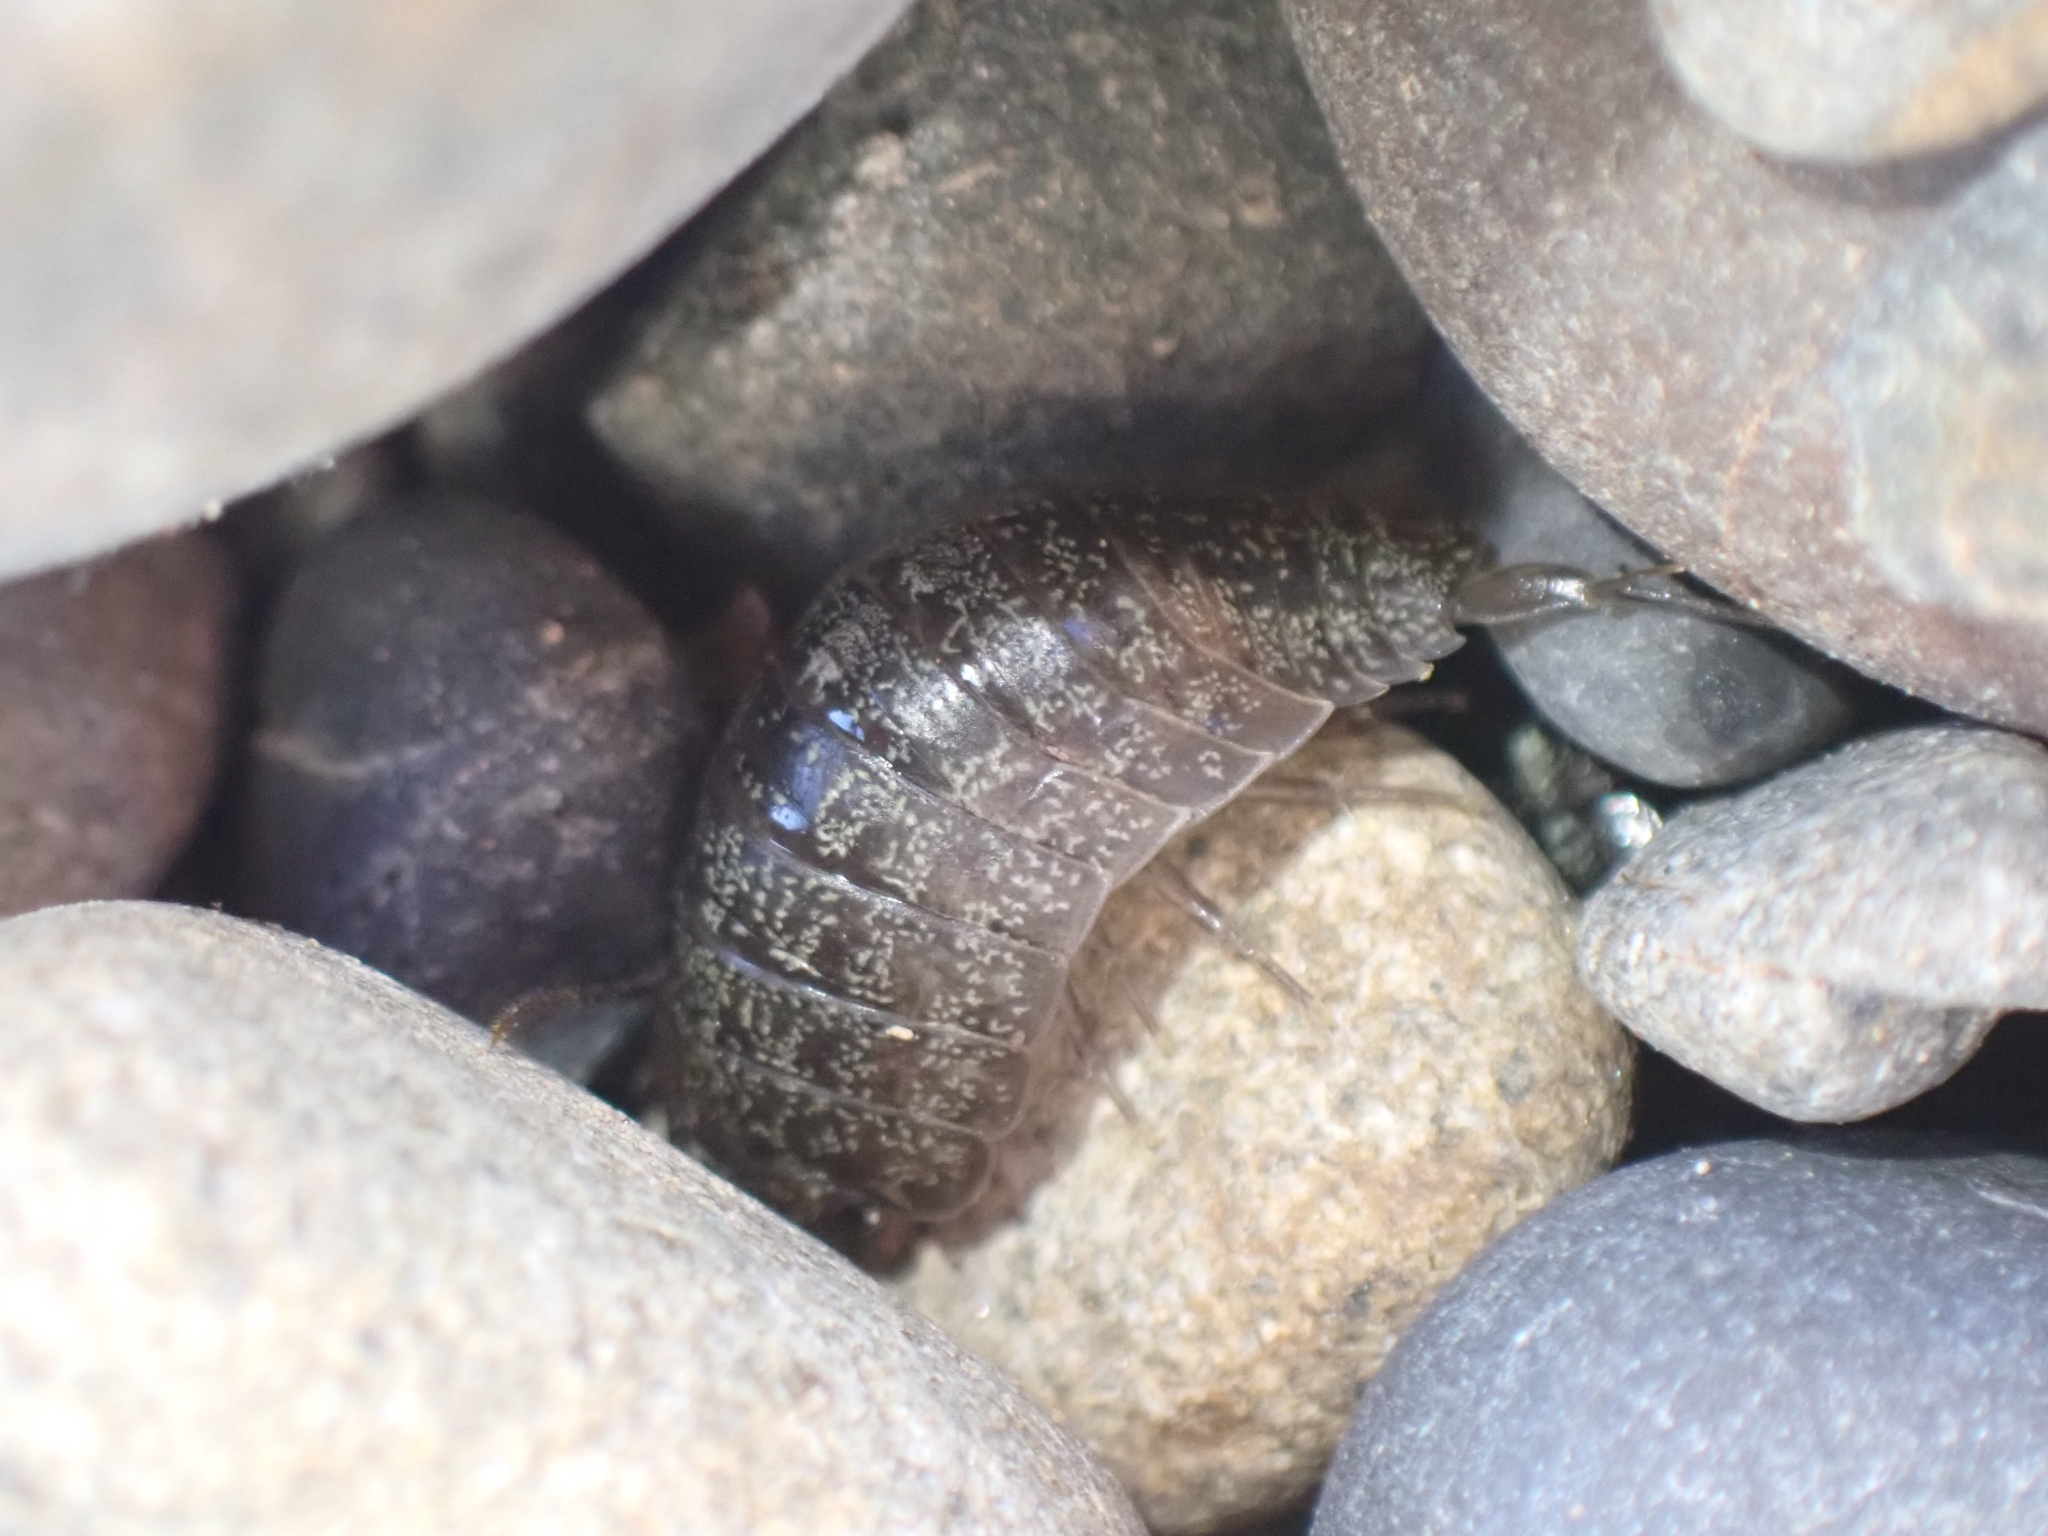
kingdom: Animalia
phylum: Arthropoda
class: Malacostraca
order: Isopoda
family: Ligiidae
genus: Ligia
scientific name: Ligia novizealandiae
